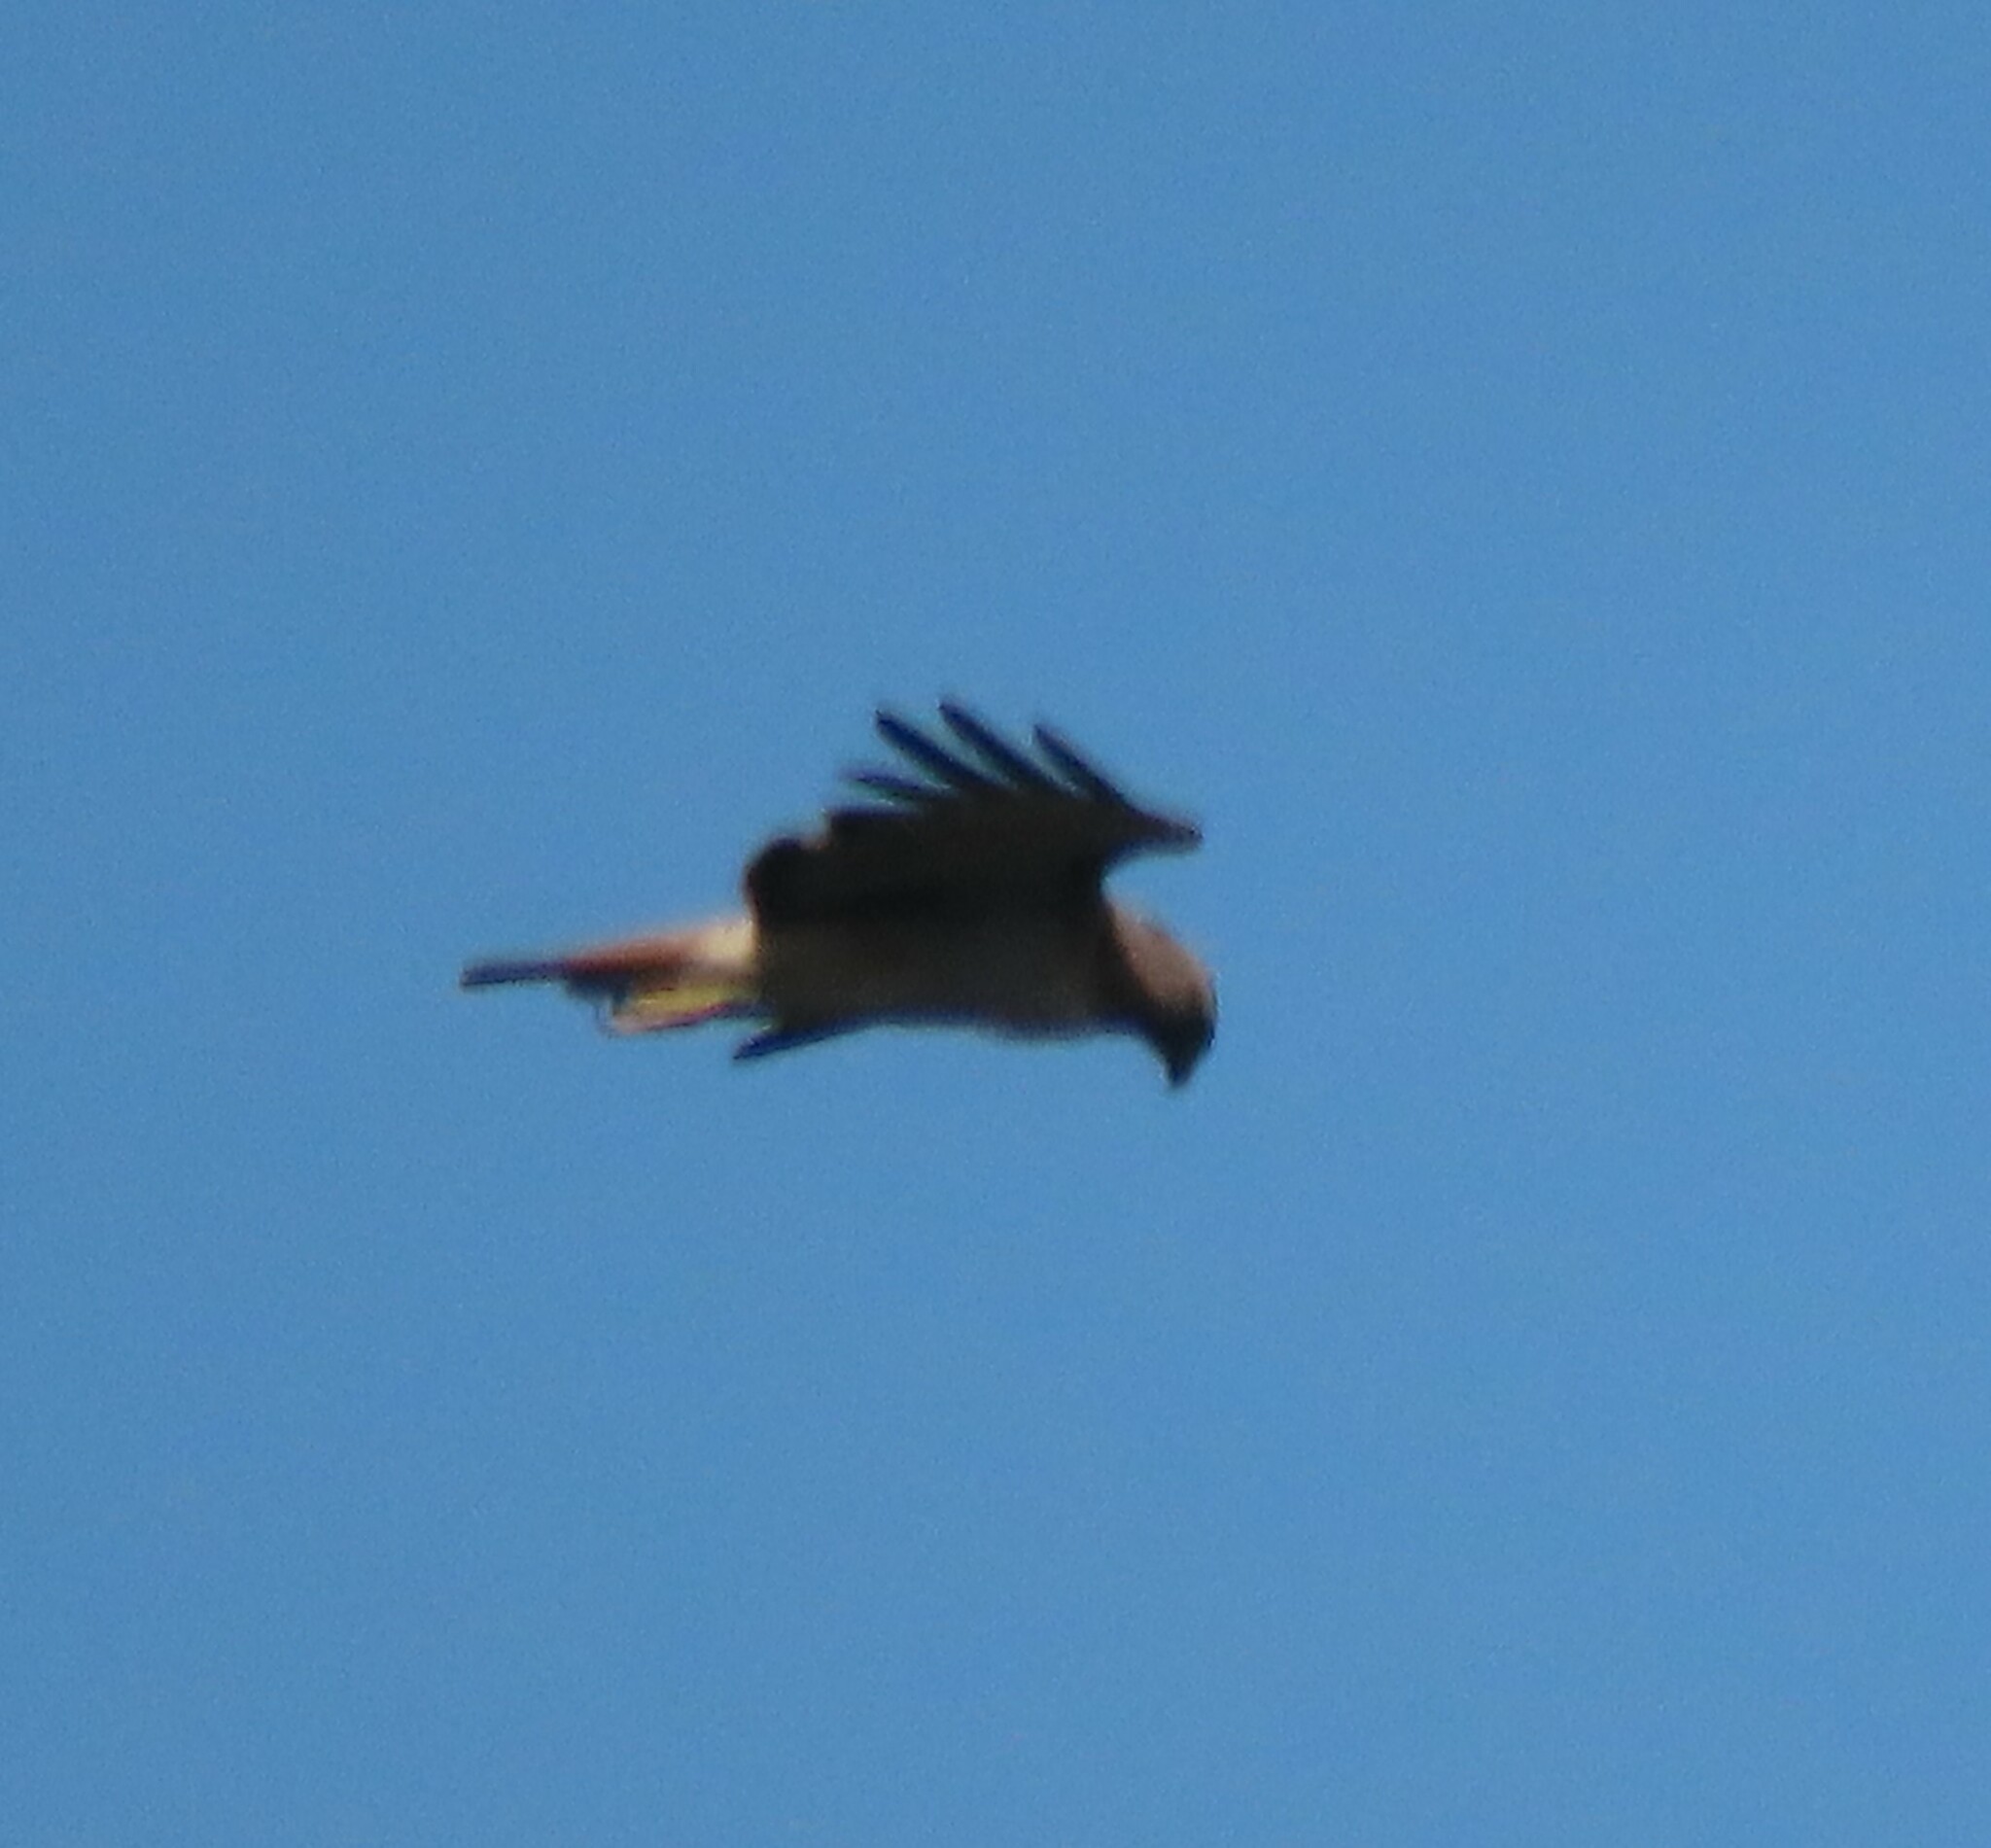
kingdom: Animalia
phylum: Chordata
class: Aves
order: Accipitriformes
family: Accipitridae
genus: Buteo
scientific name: Buteo jamaicensis
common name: Red-tailed hawk
